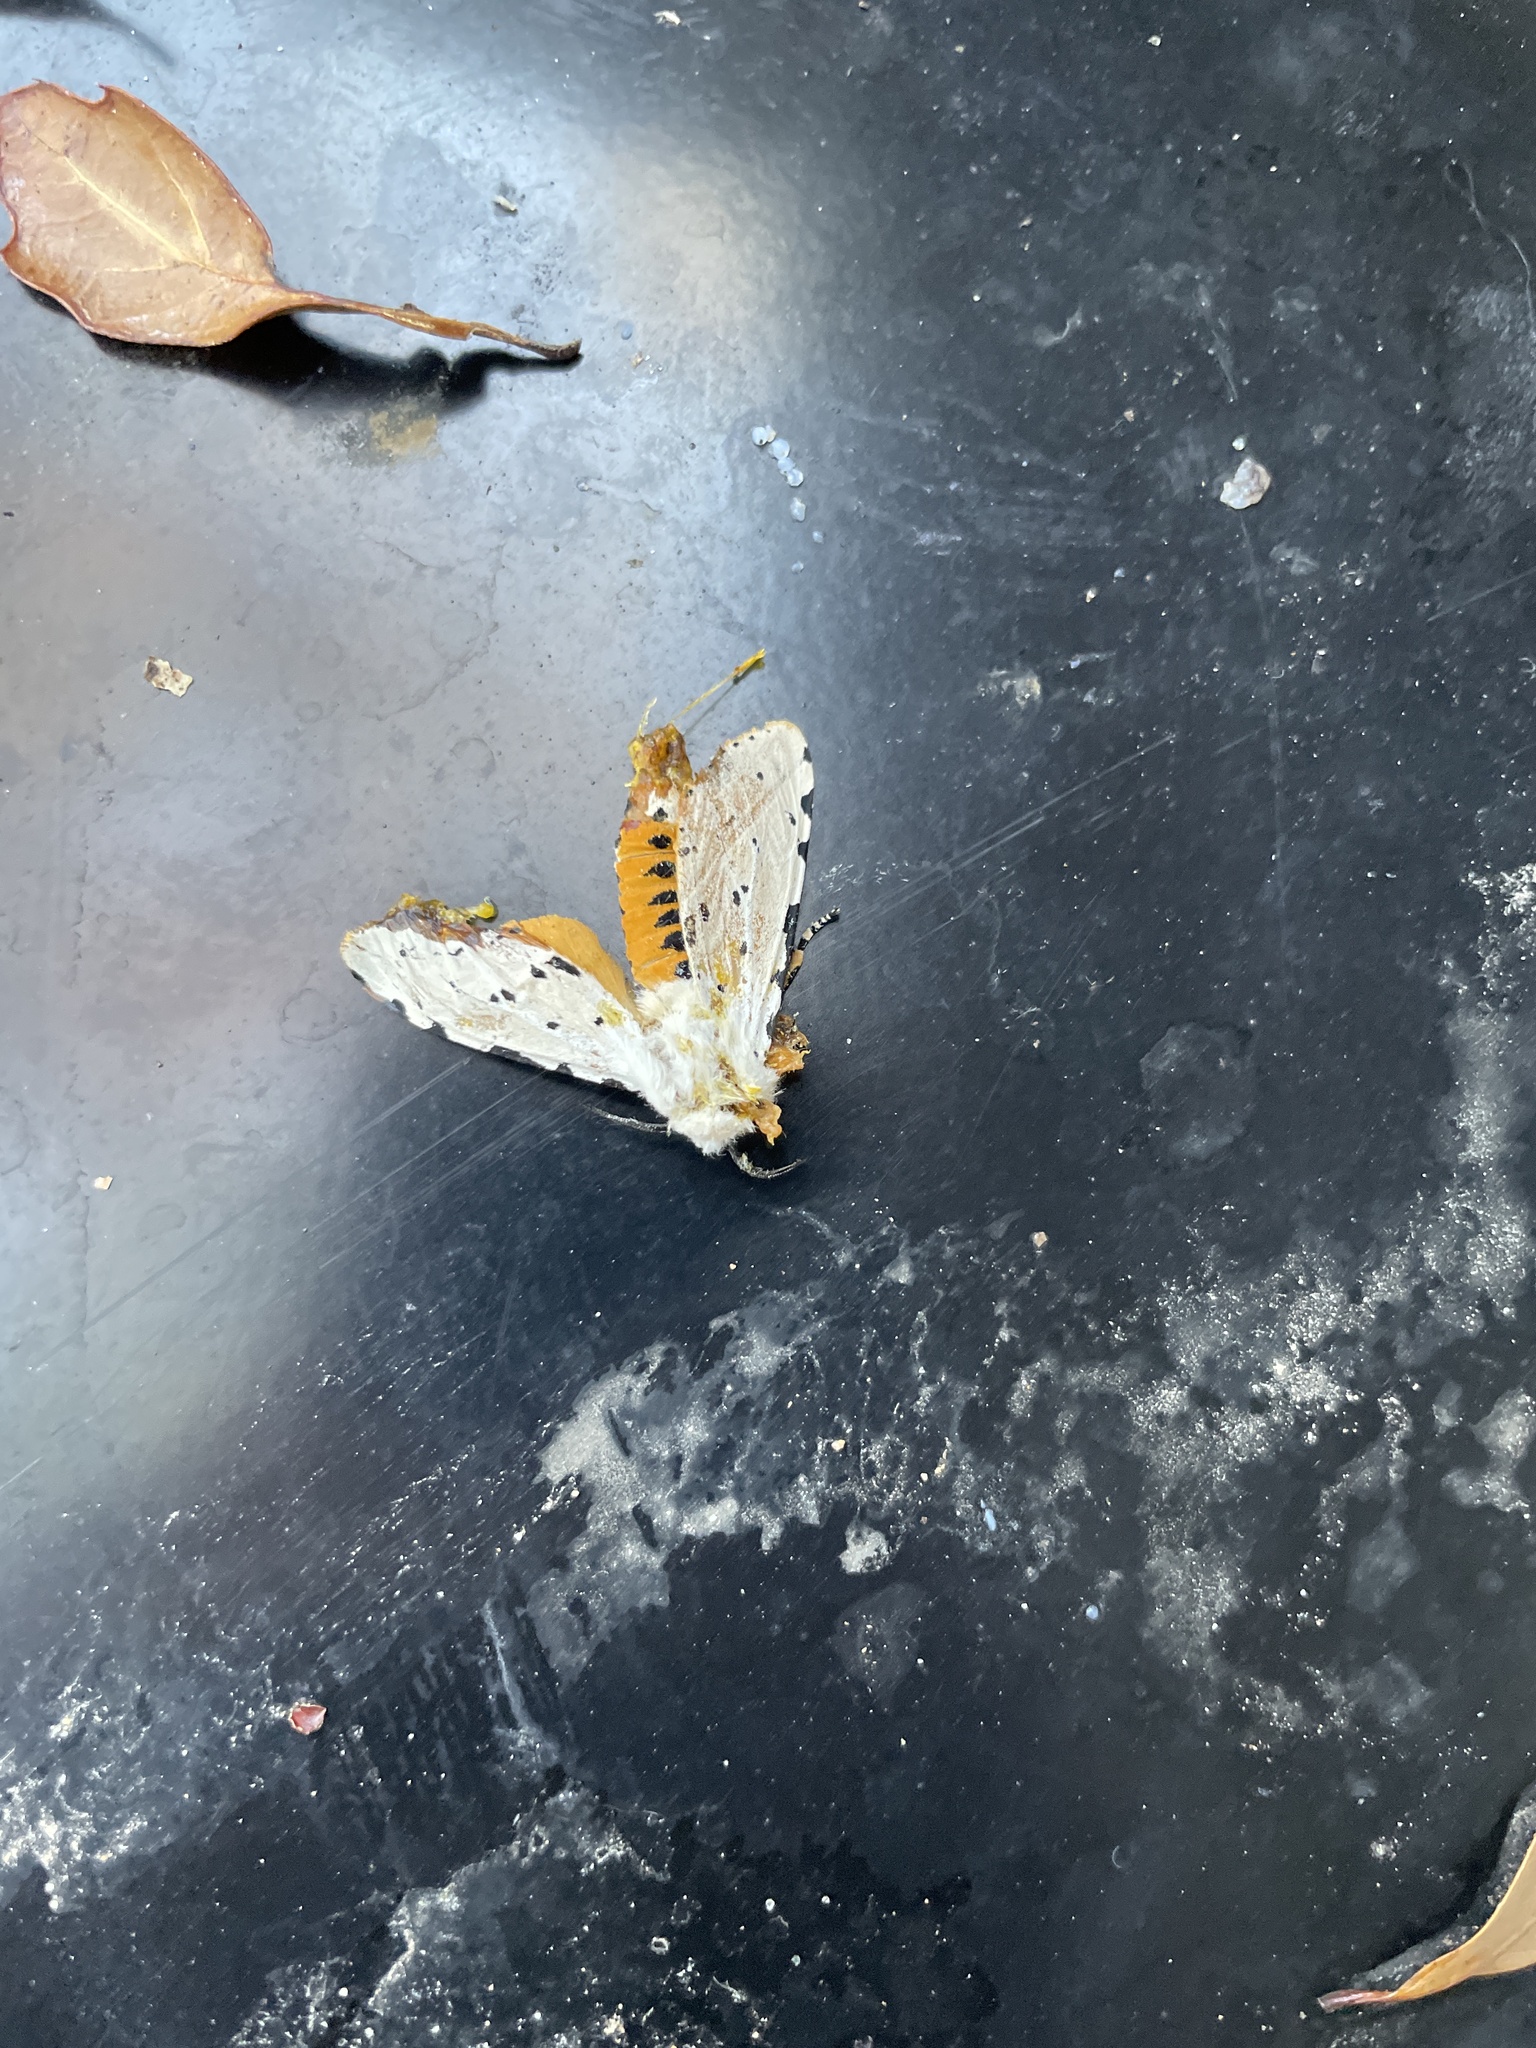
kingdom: Animalia
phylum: Arthropoda
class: Insecta
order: Lepidoptera
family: Erebidae
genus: Estigmene
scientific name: Estigmene acrea
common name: Salt marsh moth
